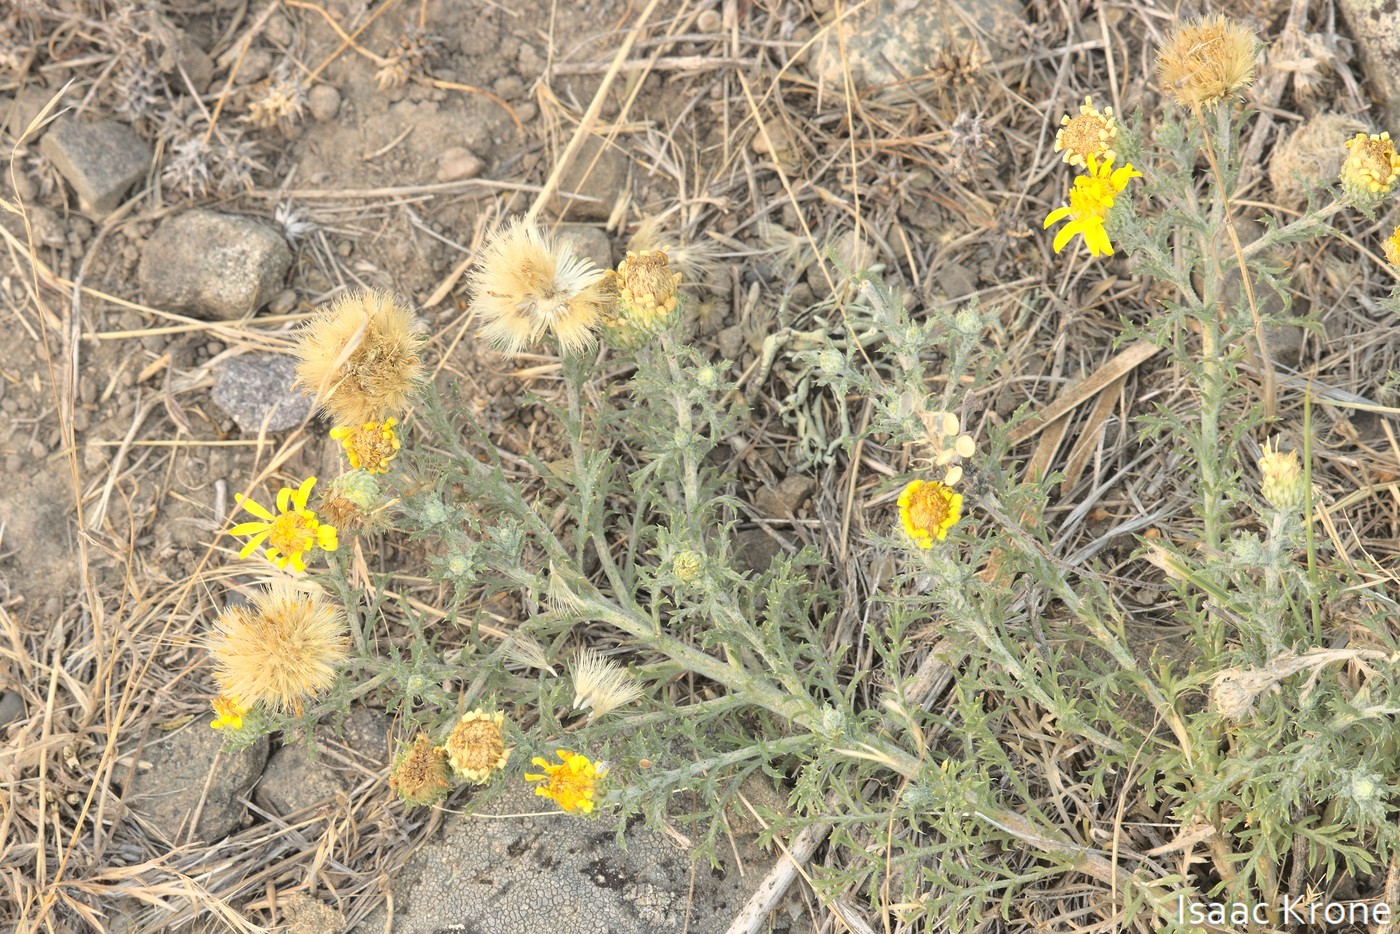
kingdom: Plantae
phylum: Tracheophyta
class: Magnoliopsida
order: Asterales
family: Asteraceae
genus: Xanthisma
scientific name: Xanthisma spinulosum
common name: Spiny goldenweed
